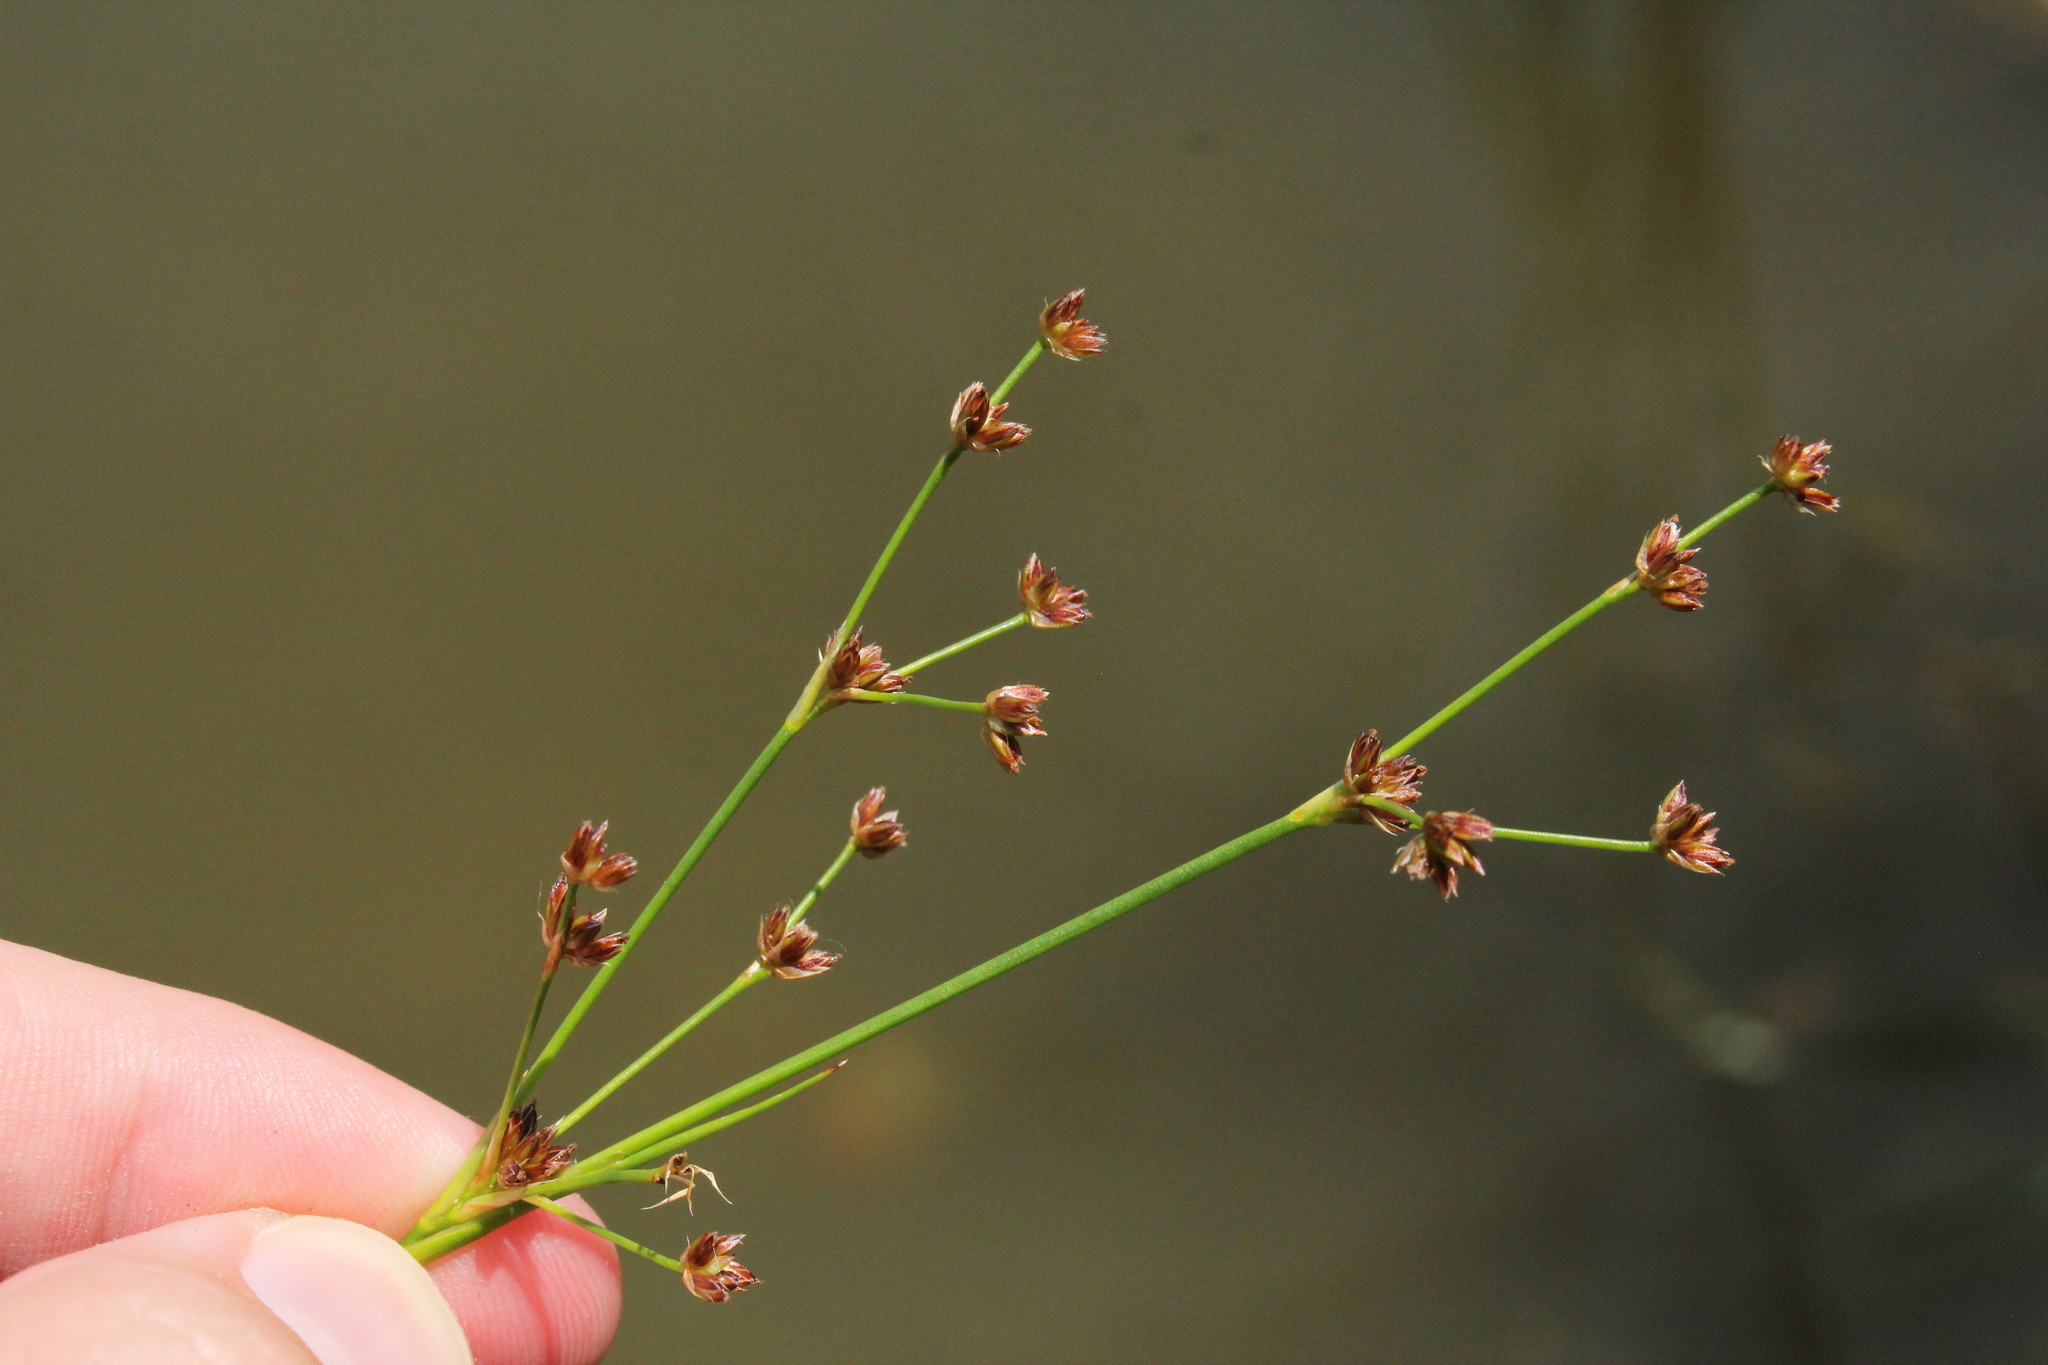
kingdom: Plantae
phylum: Tracheophyta
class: Liliopsida
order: Poales
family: Juncaceae
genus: Juncus
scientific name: Juncus articulatus
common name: Jointed rush
